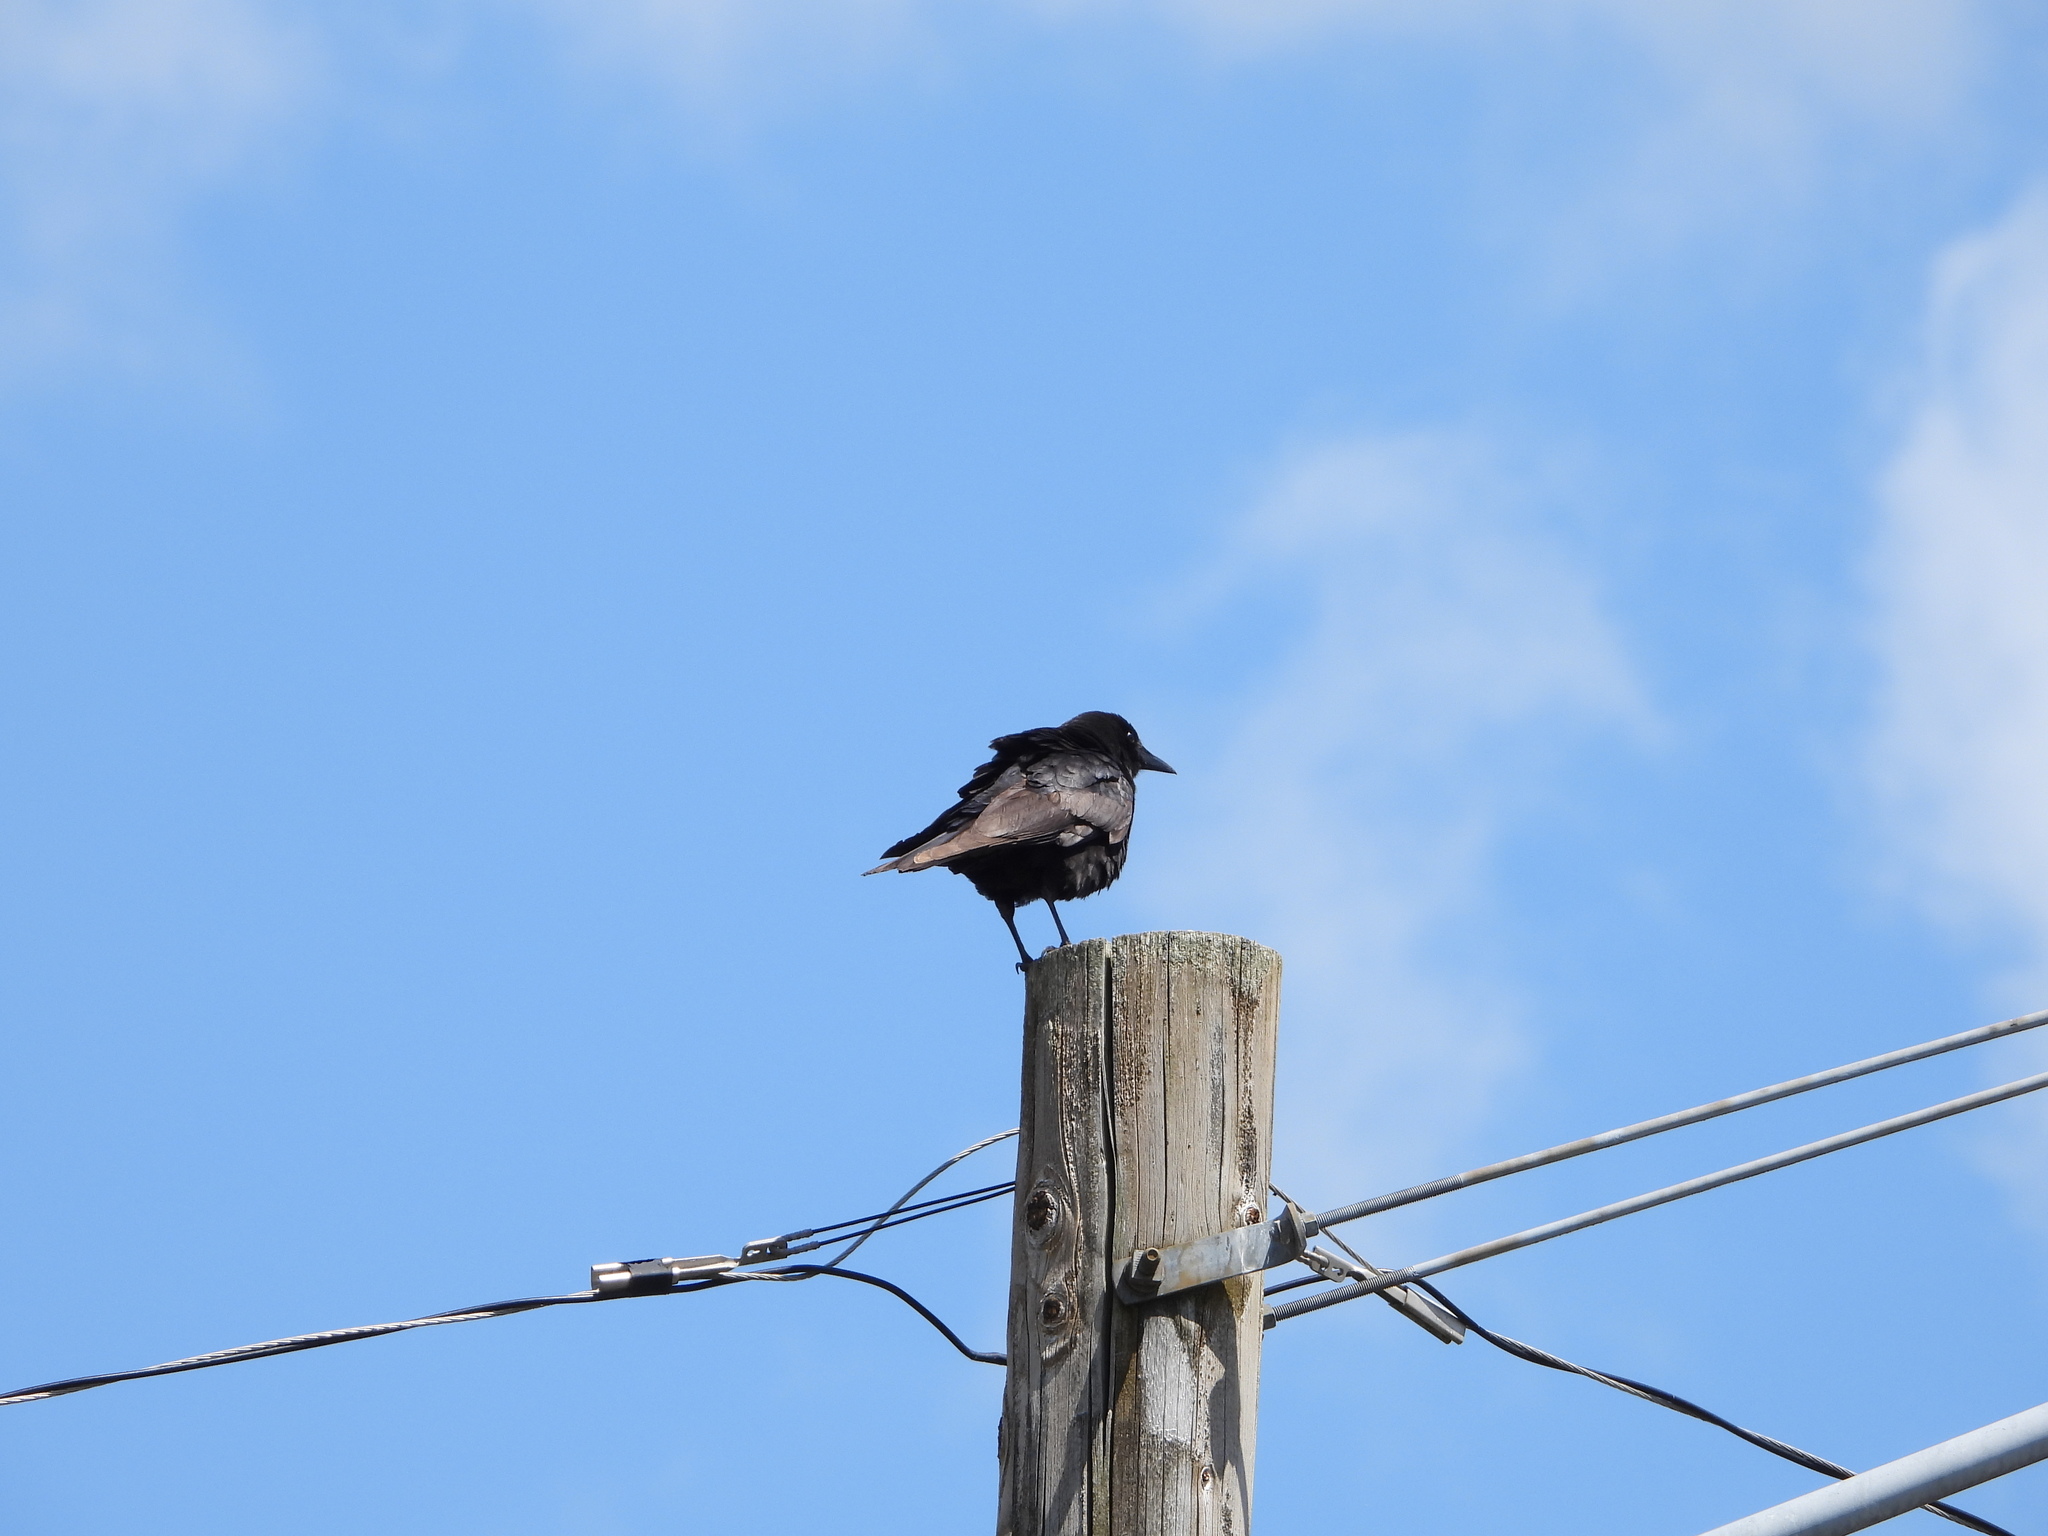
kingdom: Animalia
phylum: Chordata
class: Aves
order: Passeriformes
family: Corvidae
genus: Corvus
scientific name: Corvus brachyrhynchos
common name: American crow
